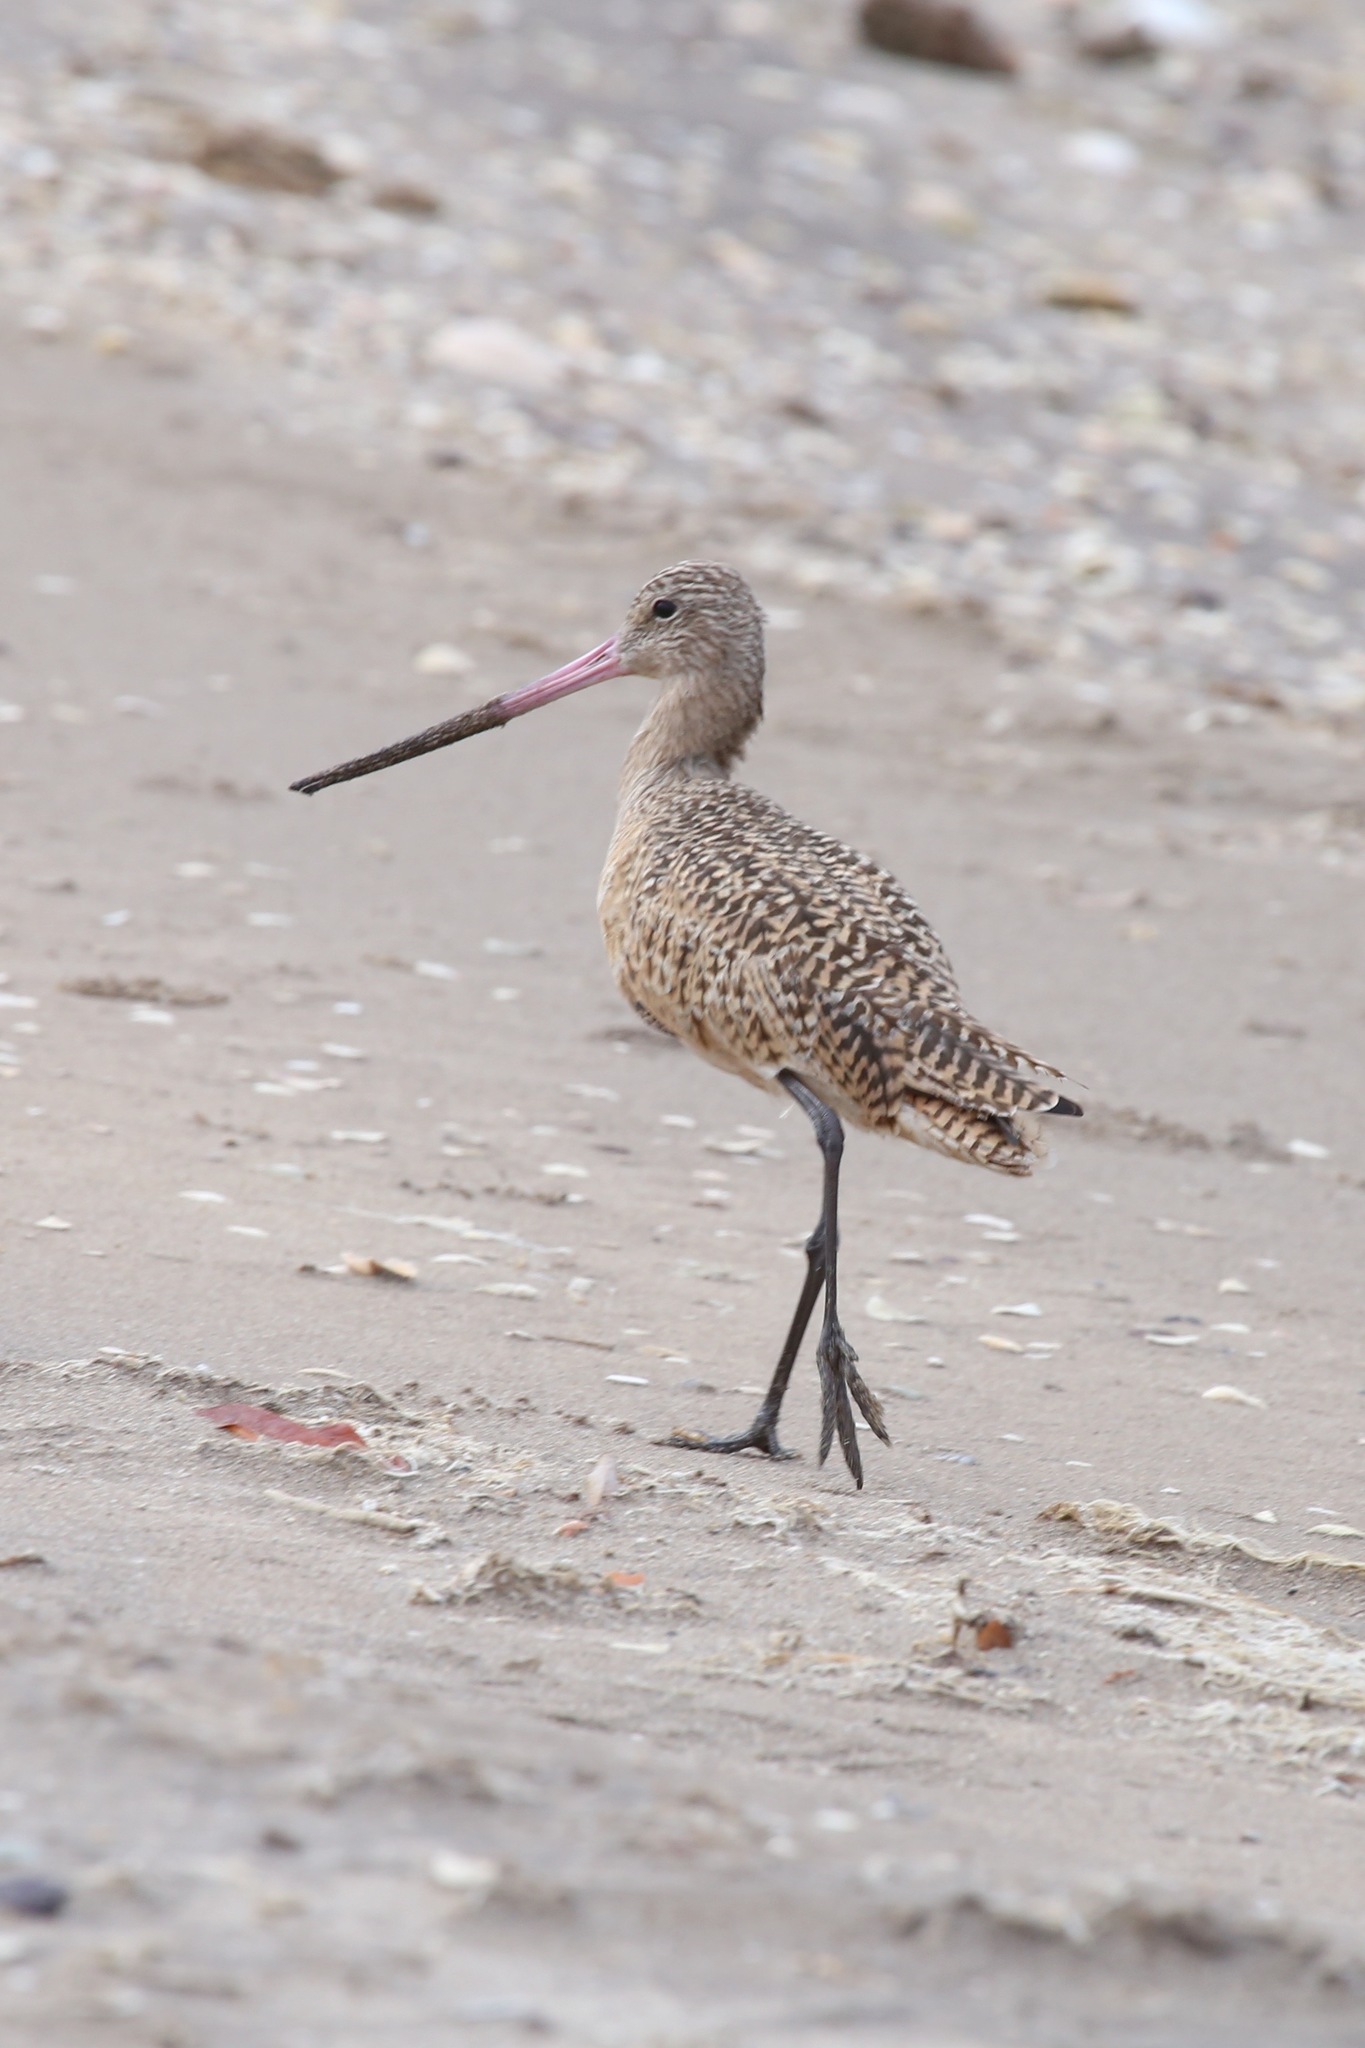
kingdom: Animalia
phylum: Chordata
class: Aves
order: Charadriiformes
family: Scolopacidae
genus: Limosa
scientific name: Limosa fedoa
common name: Marbled godwit
